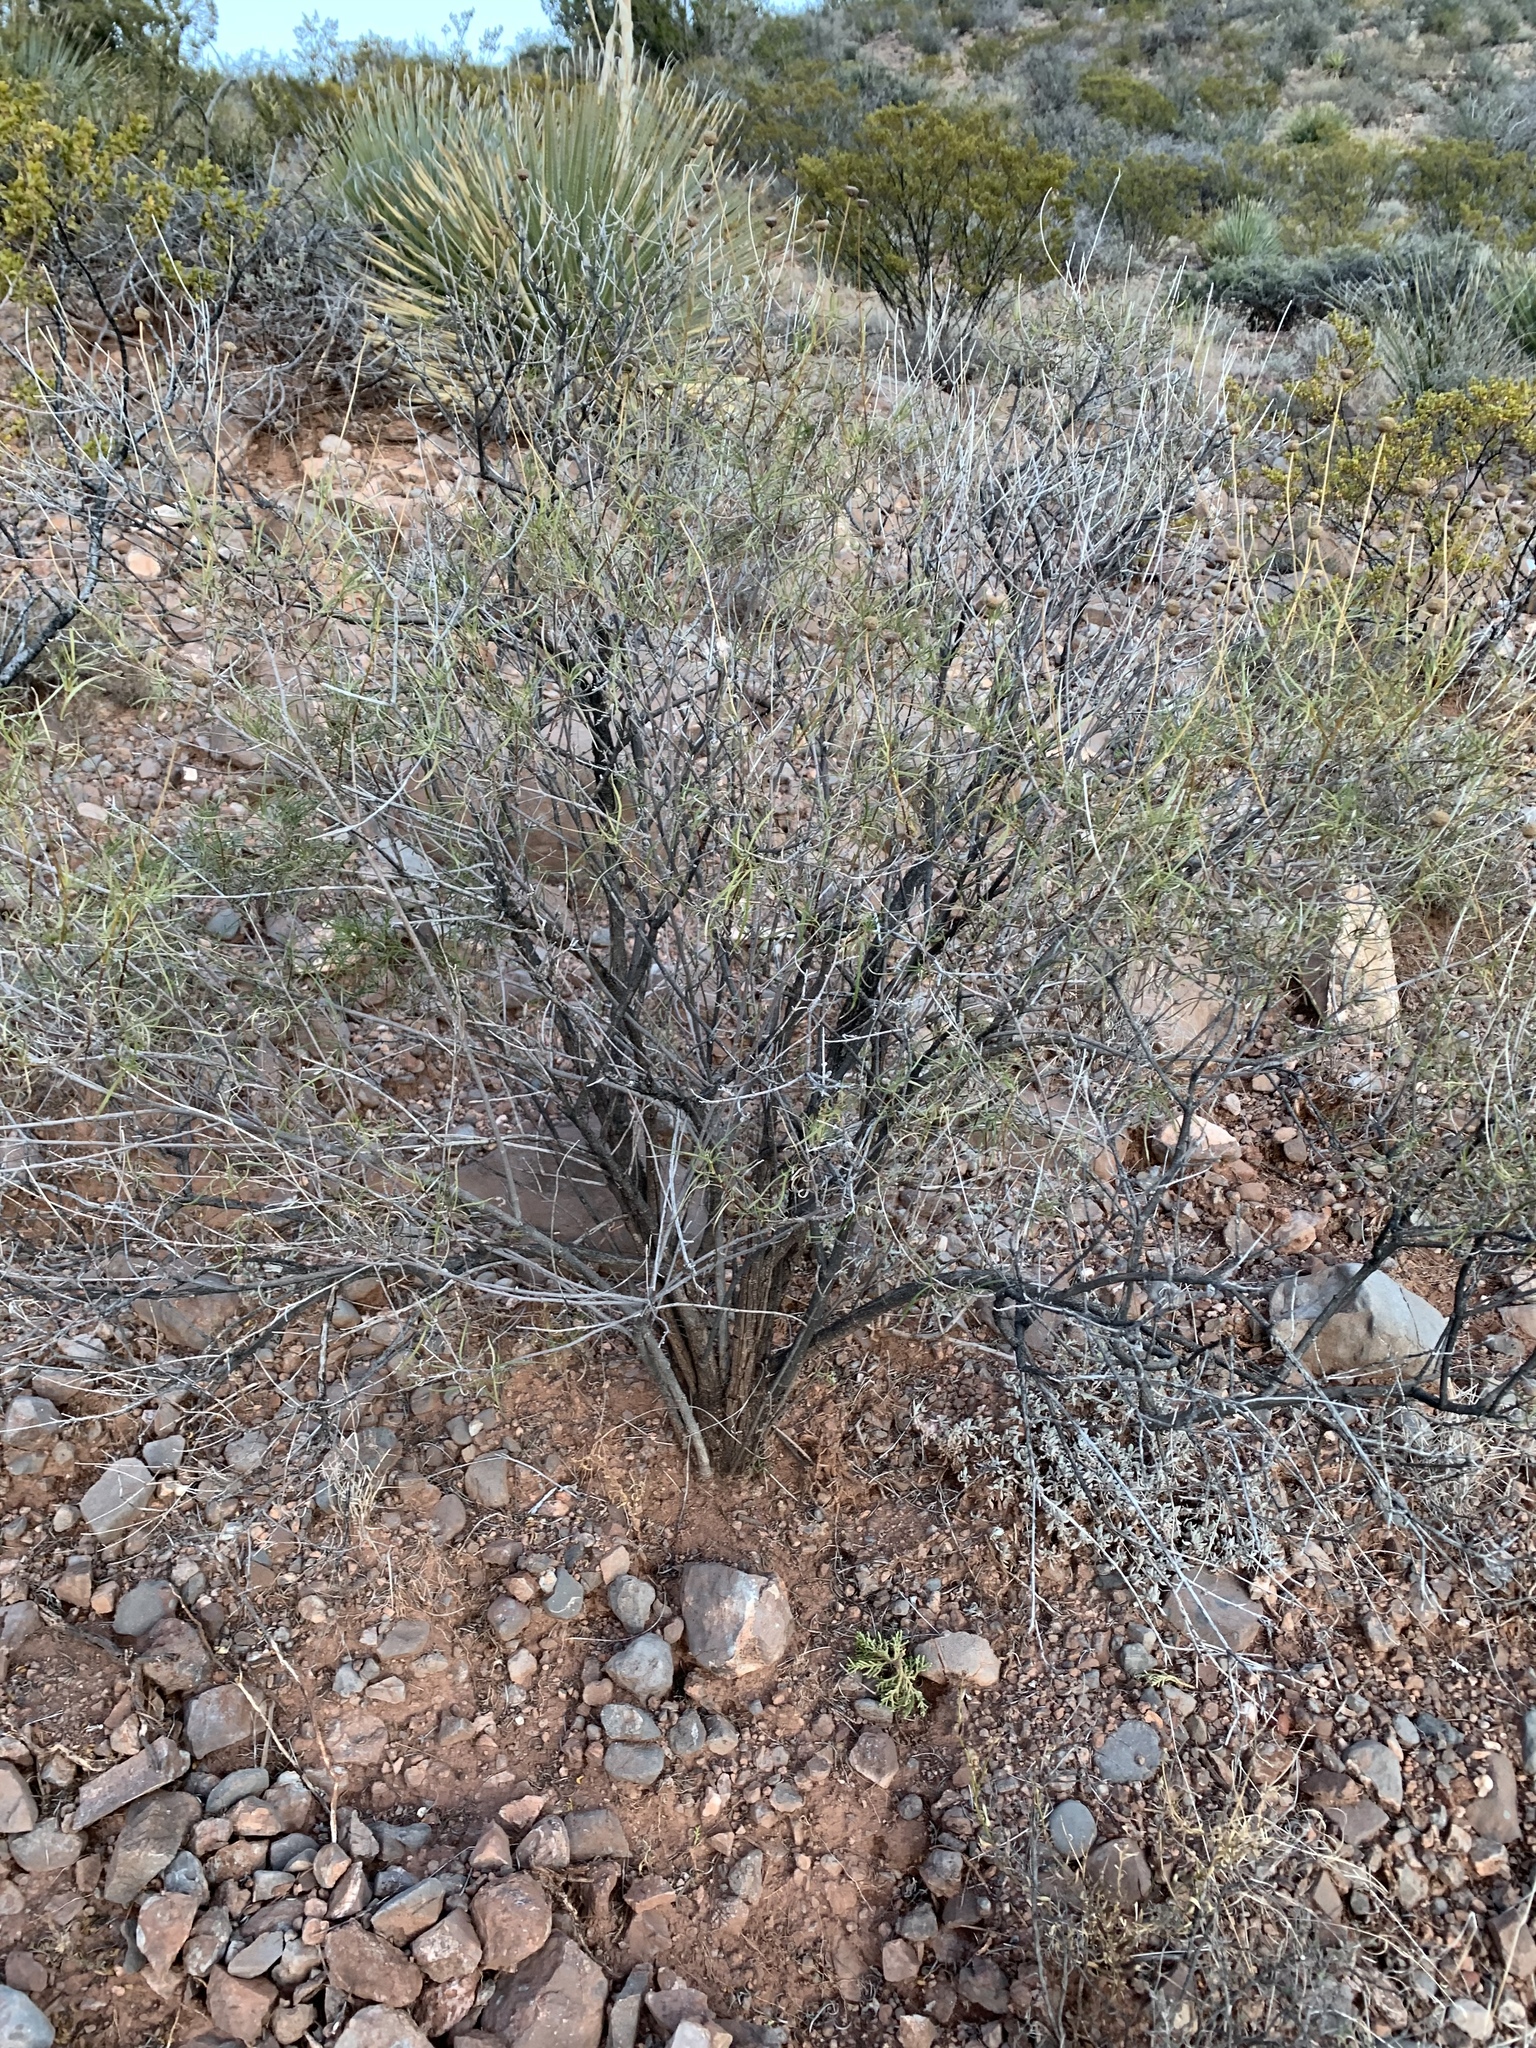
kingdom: Plantae
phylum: Tracheophyta
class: Magnoliopsida
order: Asterales
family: Asteraceae
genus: Sidneya
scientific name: Sidneya tenuifolia
